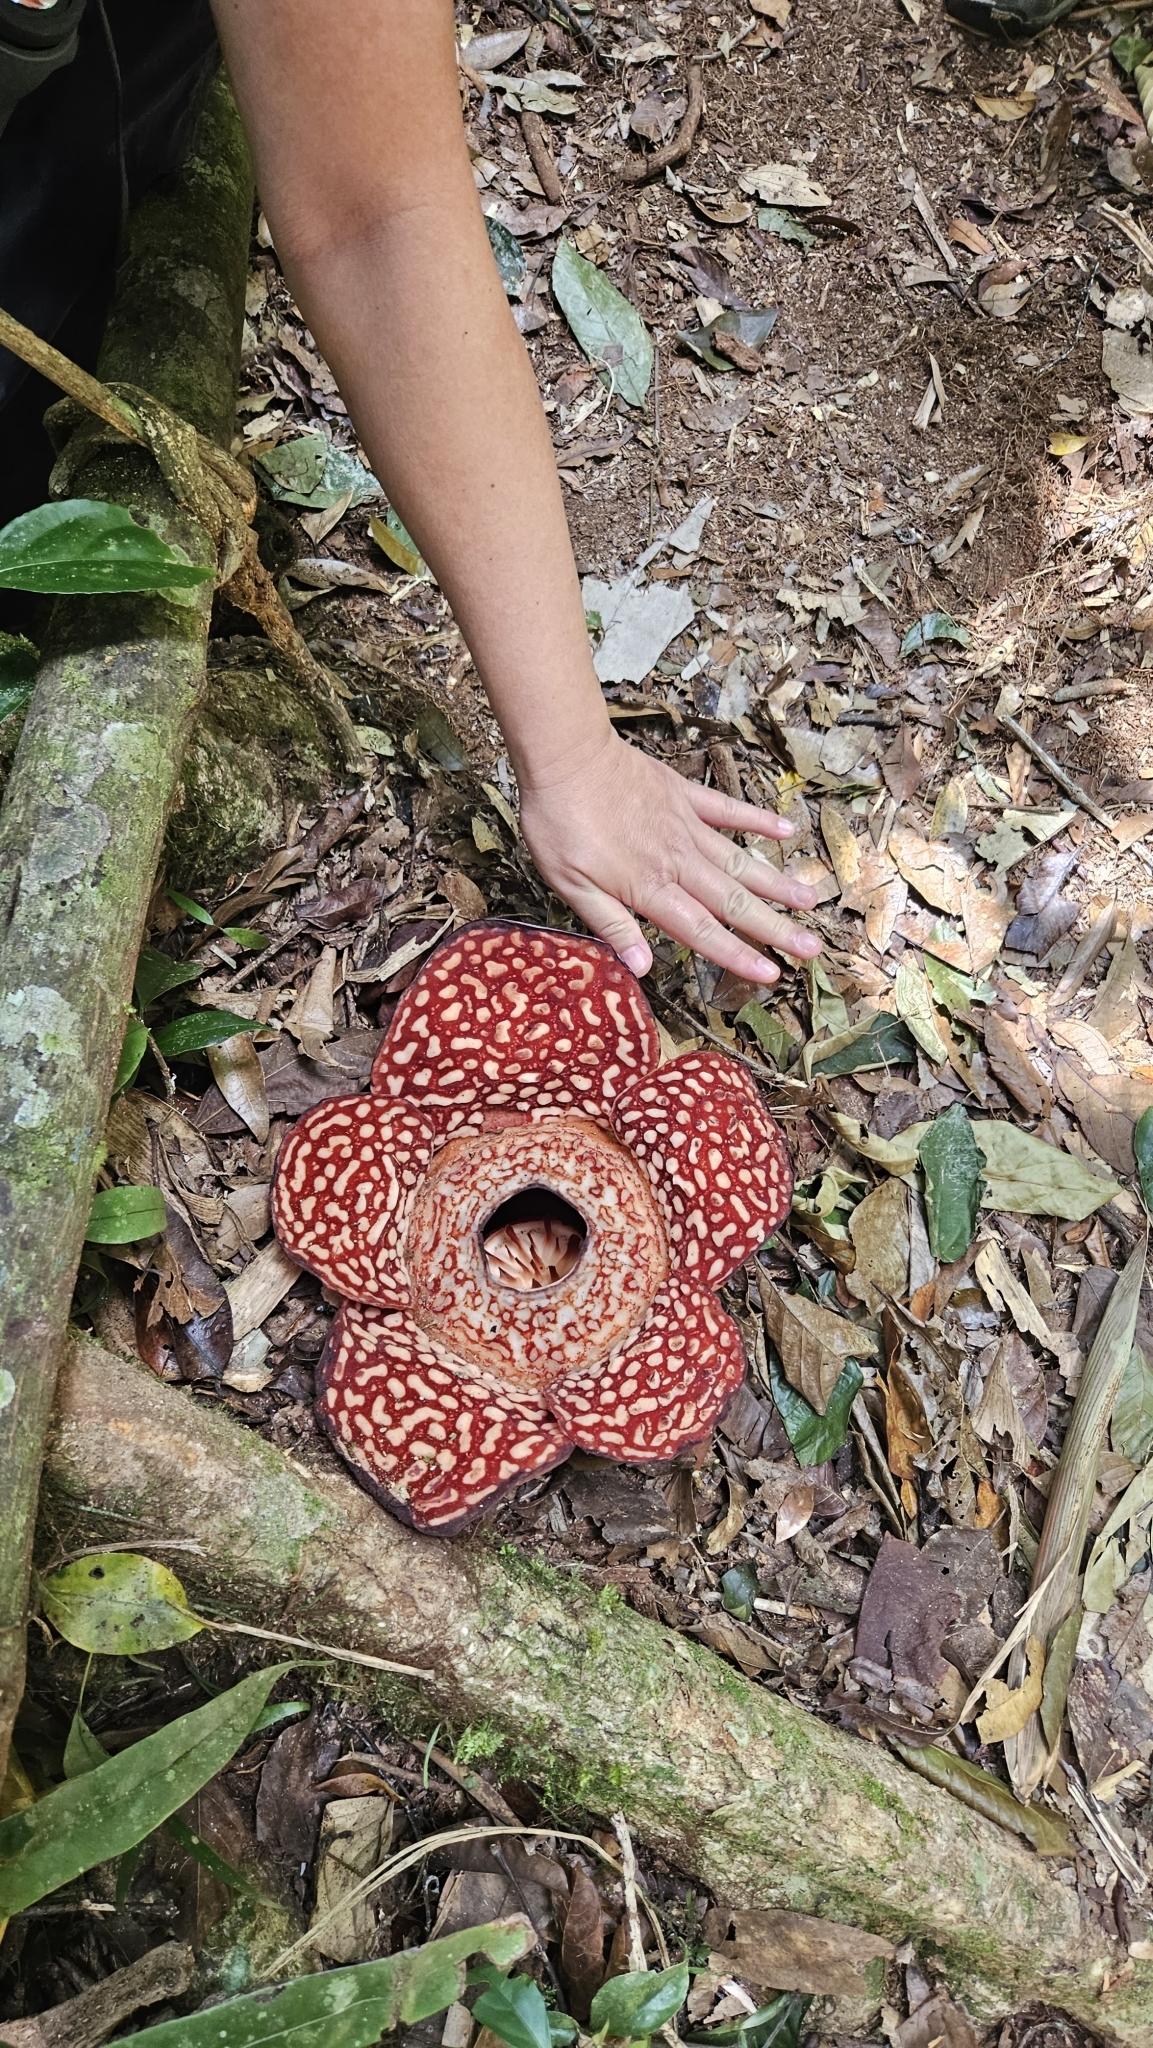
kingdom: Plantae
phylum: Tracheophyta
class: Magnoliopsida
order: Malpighiales
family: Rafflesiaceae
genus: Rafflesia
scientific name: Rafflesia pricei
